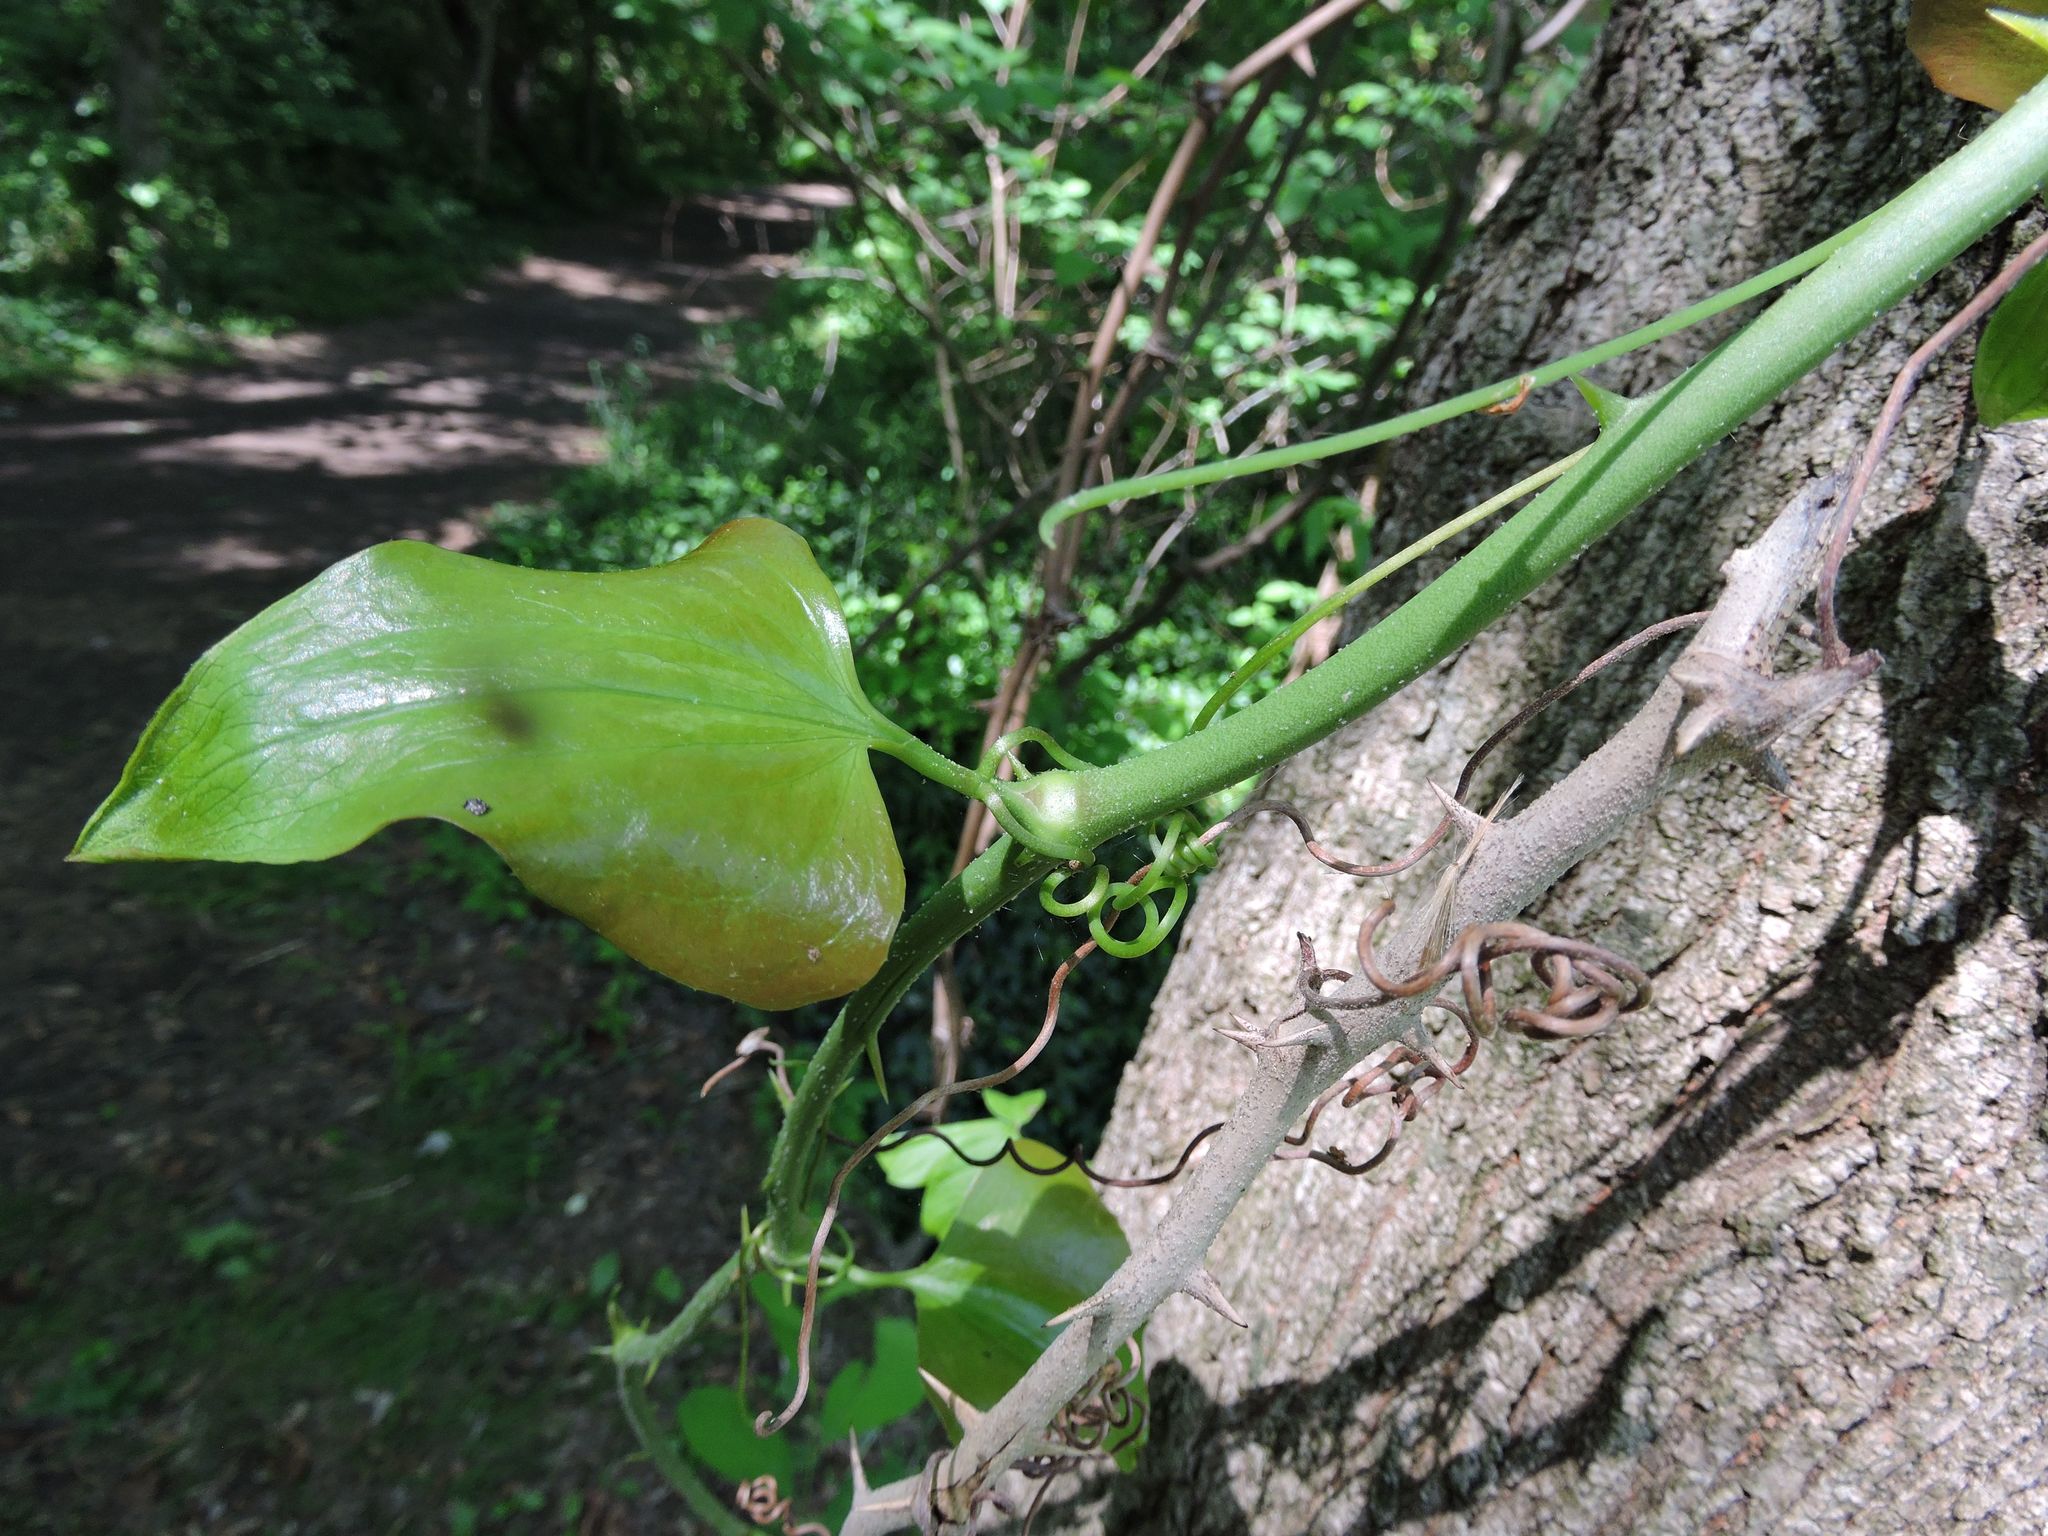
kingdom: Plantae
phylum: Tracheophyta
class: Liliopsida
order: Liliales
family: Smilacaceae
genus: Smilax
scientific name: Smilax bona-nox
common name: Catbrier
